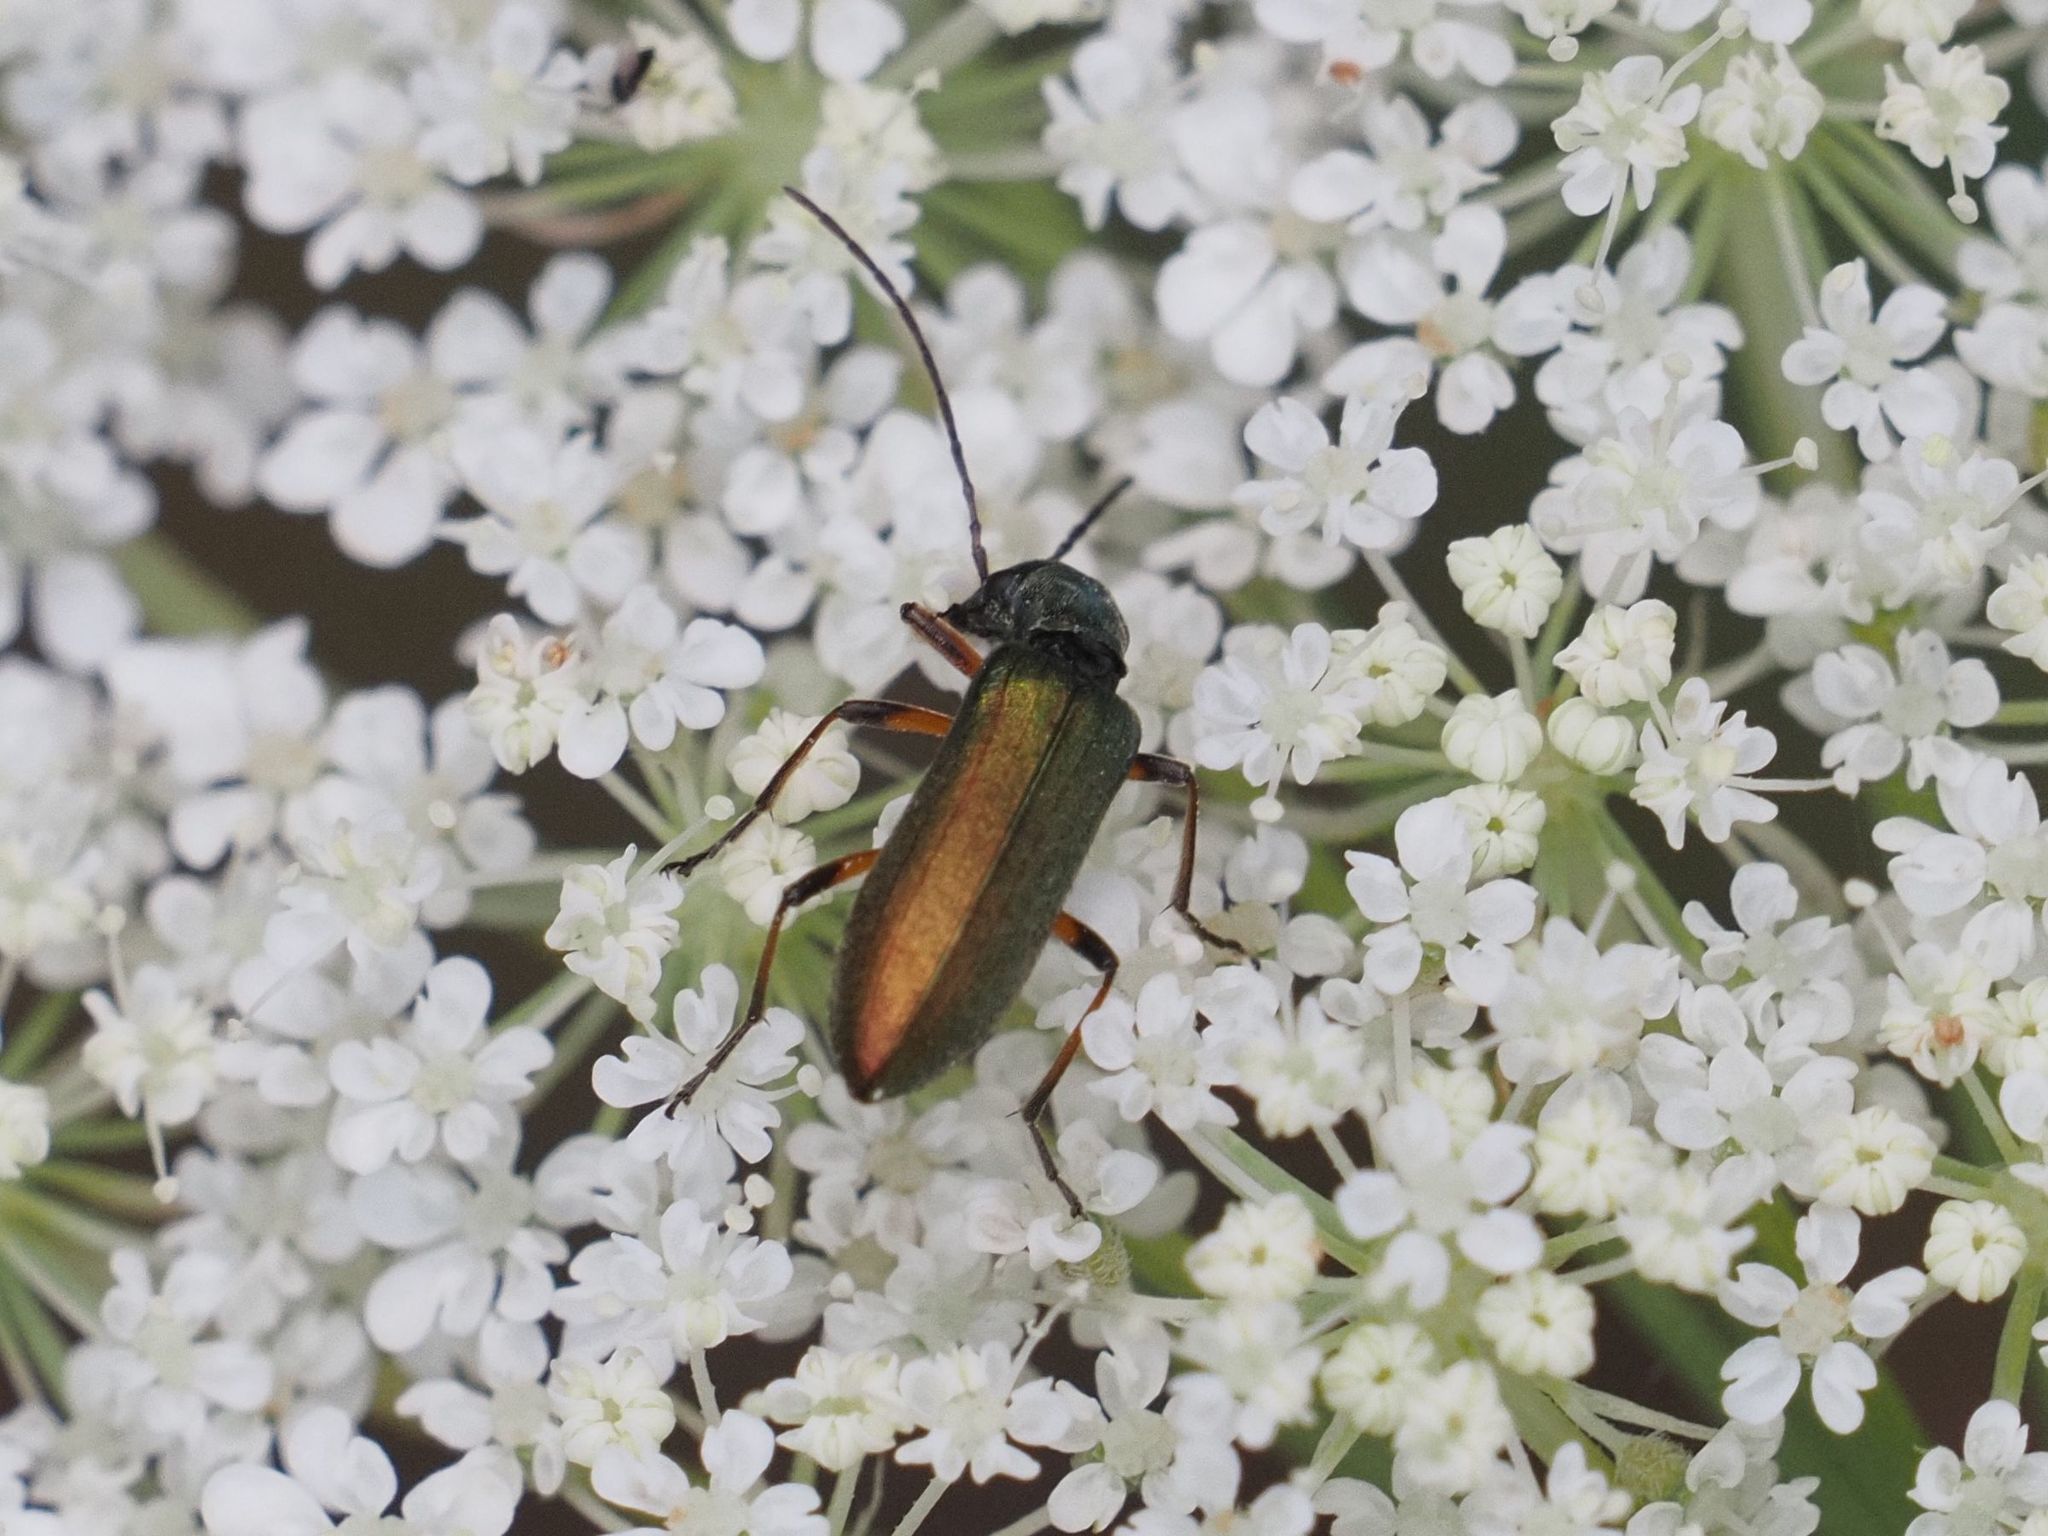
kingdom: Animalia
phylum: Arthropoda
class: Insecta
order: Coleoptera
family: Oedemeridae
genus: Chrysanthia
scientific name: Chrysanthia geniculata
